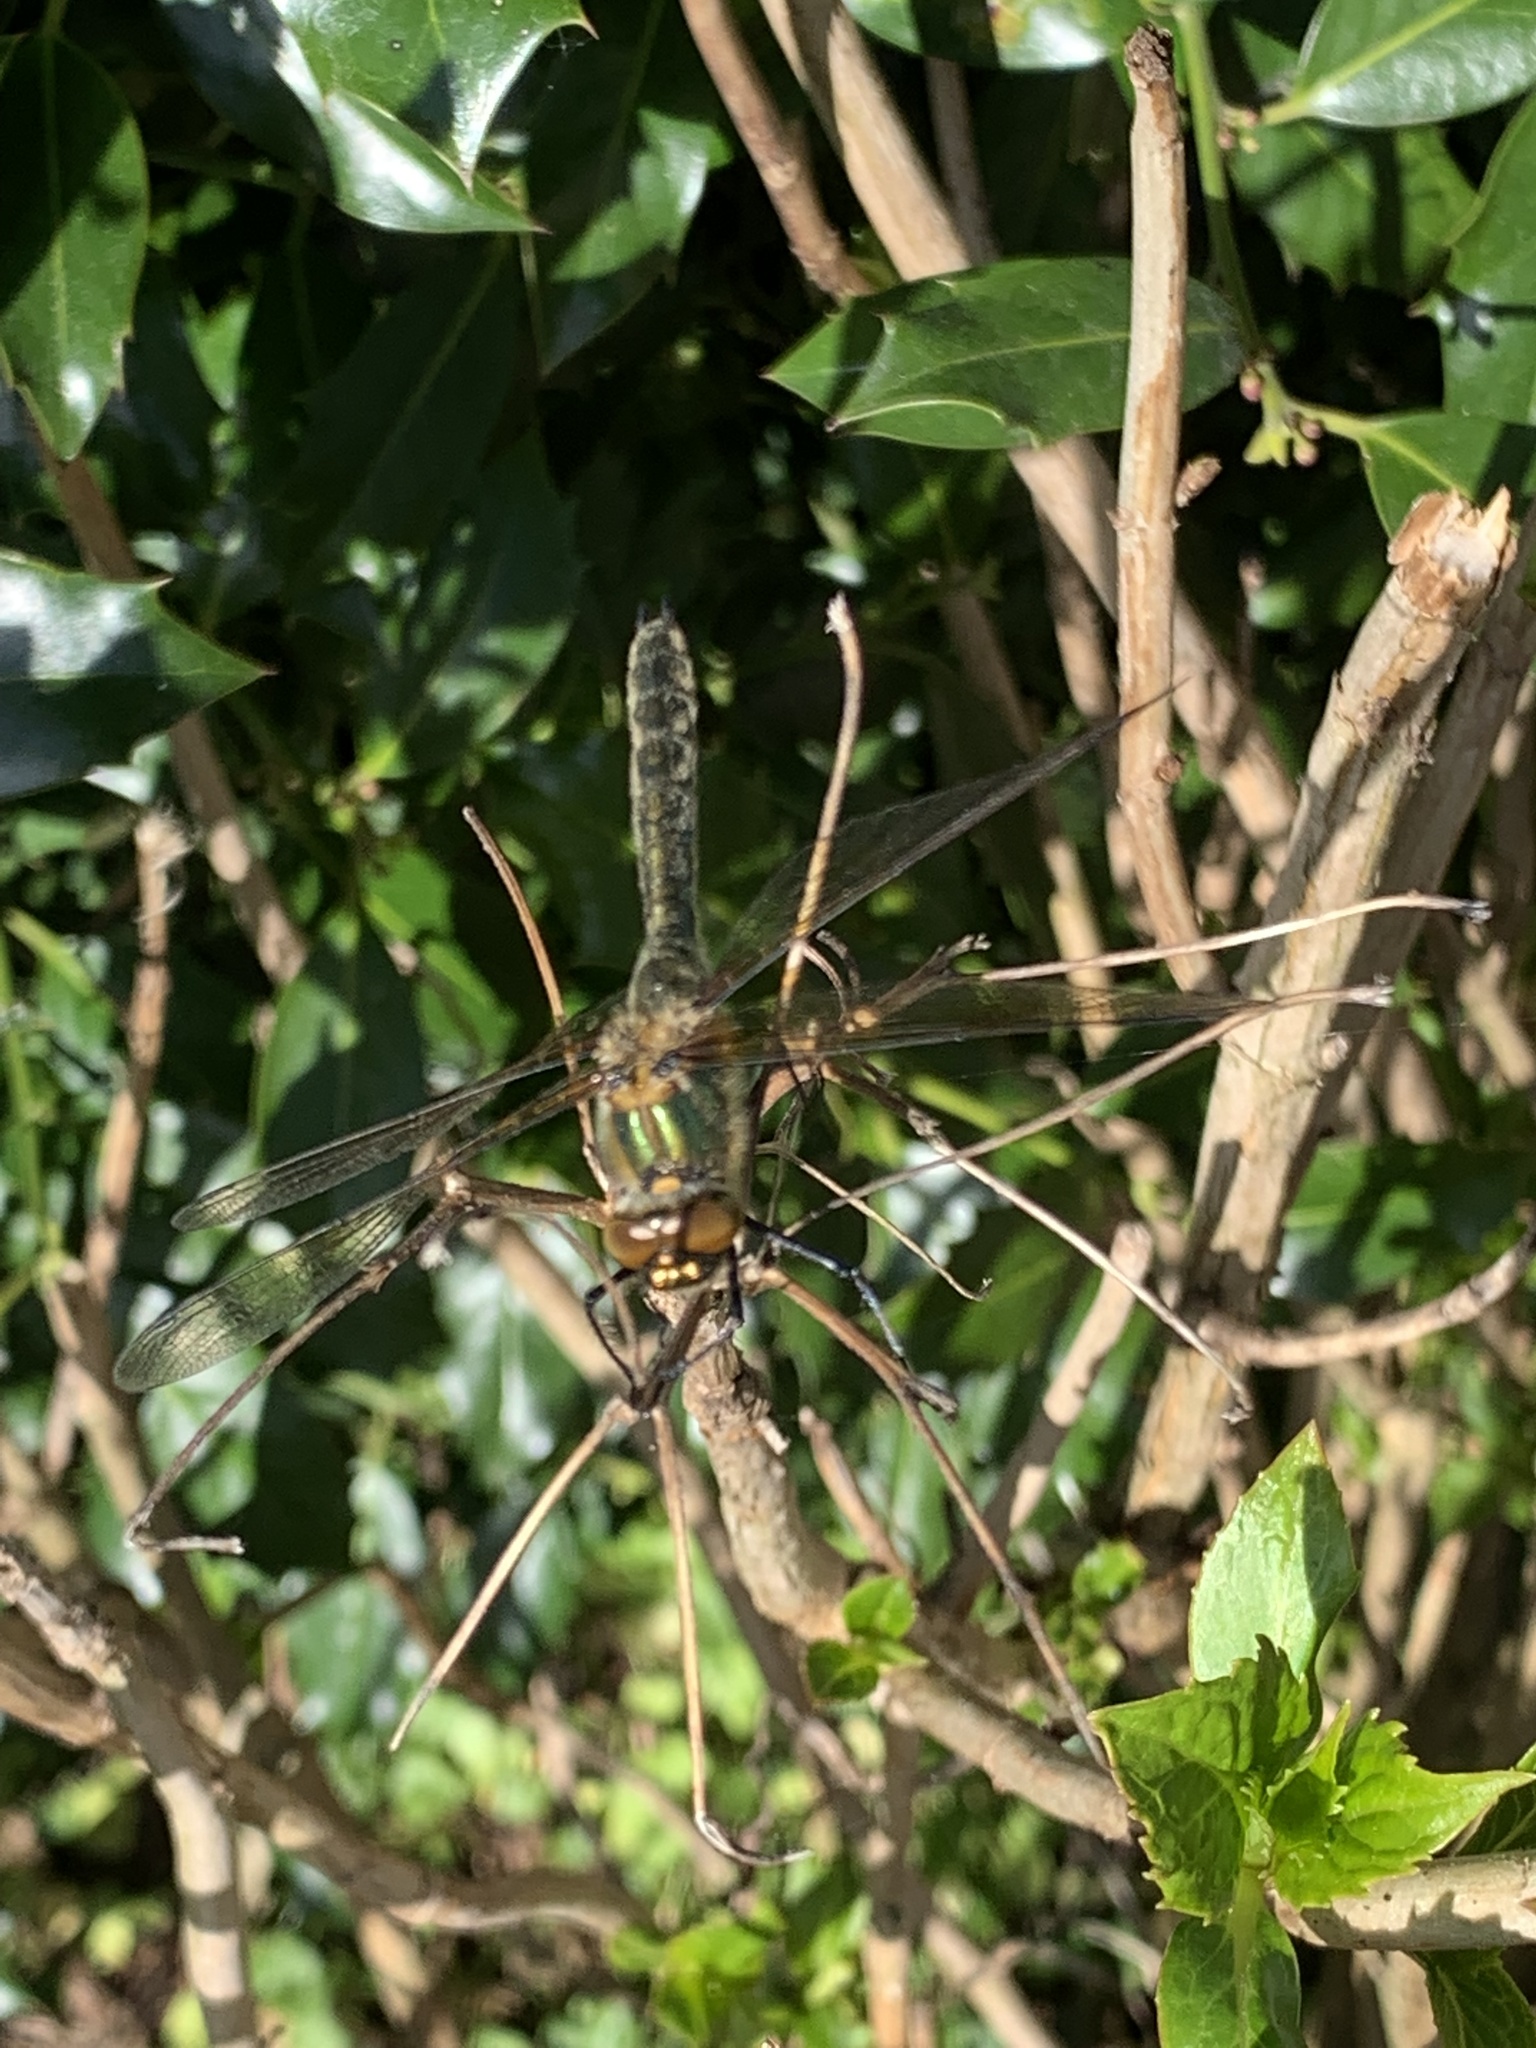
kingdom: Animalia
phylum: Arthropoda
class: Insecta
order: Odonata
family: Corduliidae
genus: Cordulia
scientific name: Cordulia aenea
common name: Downy emerald
